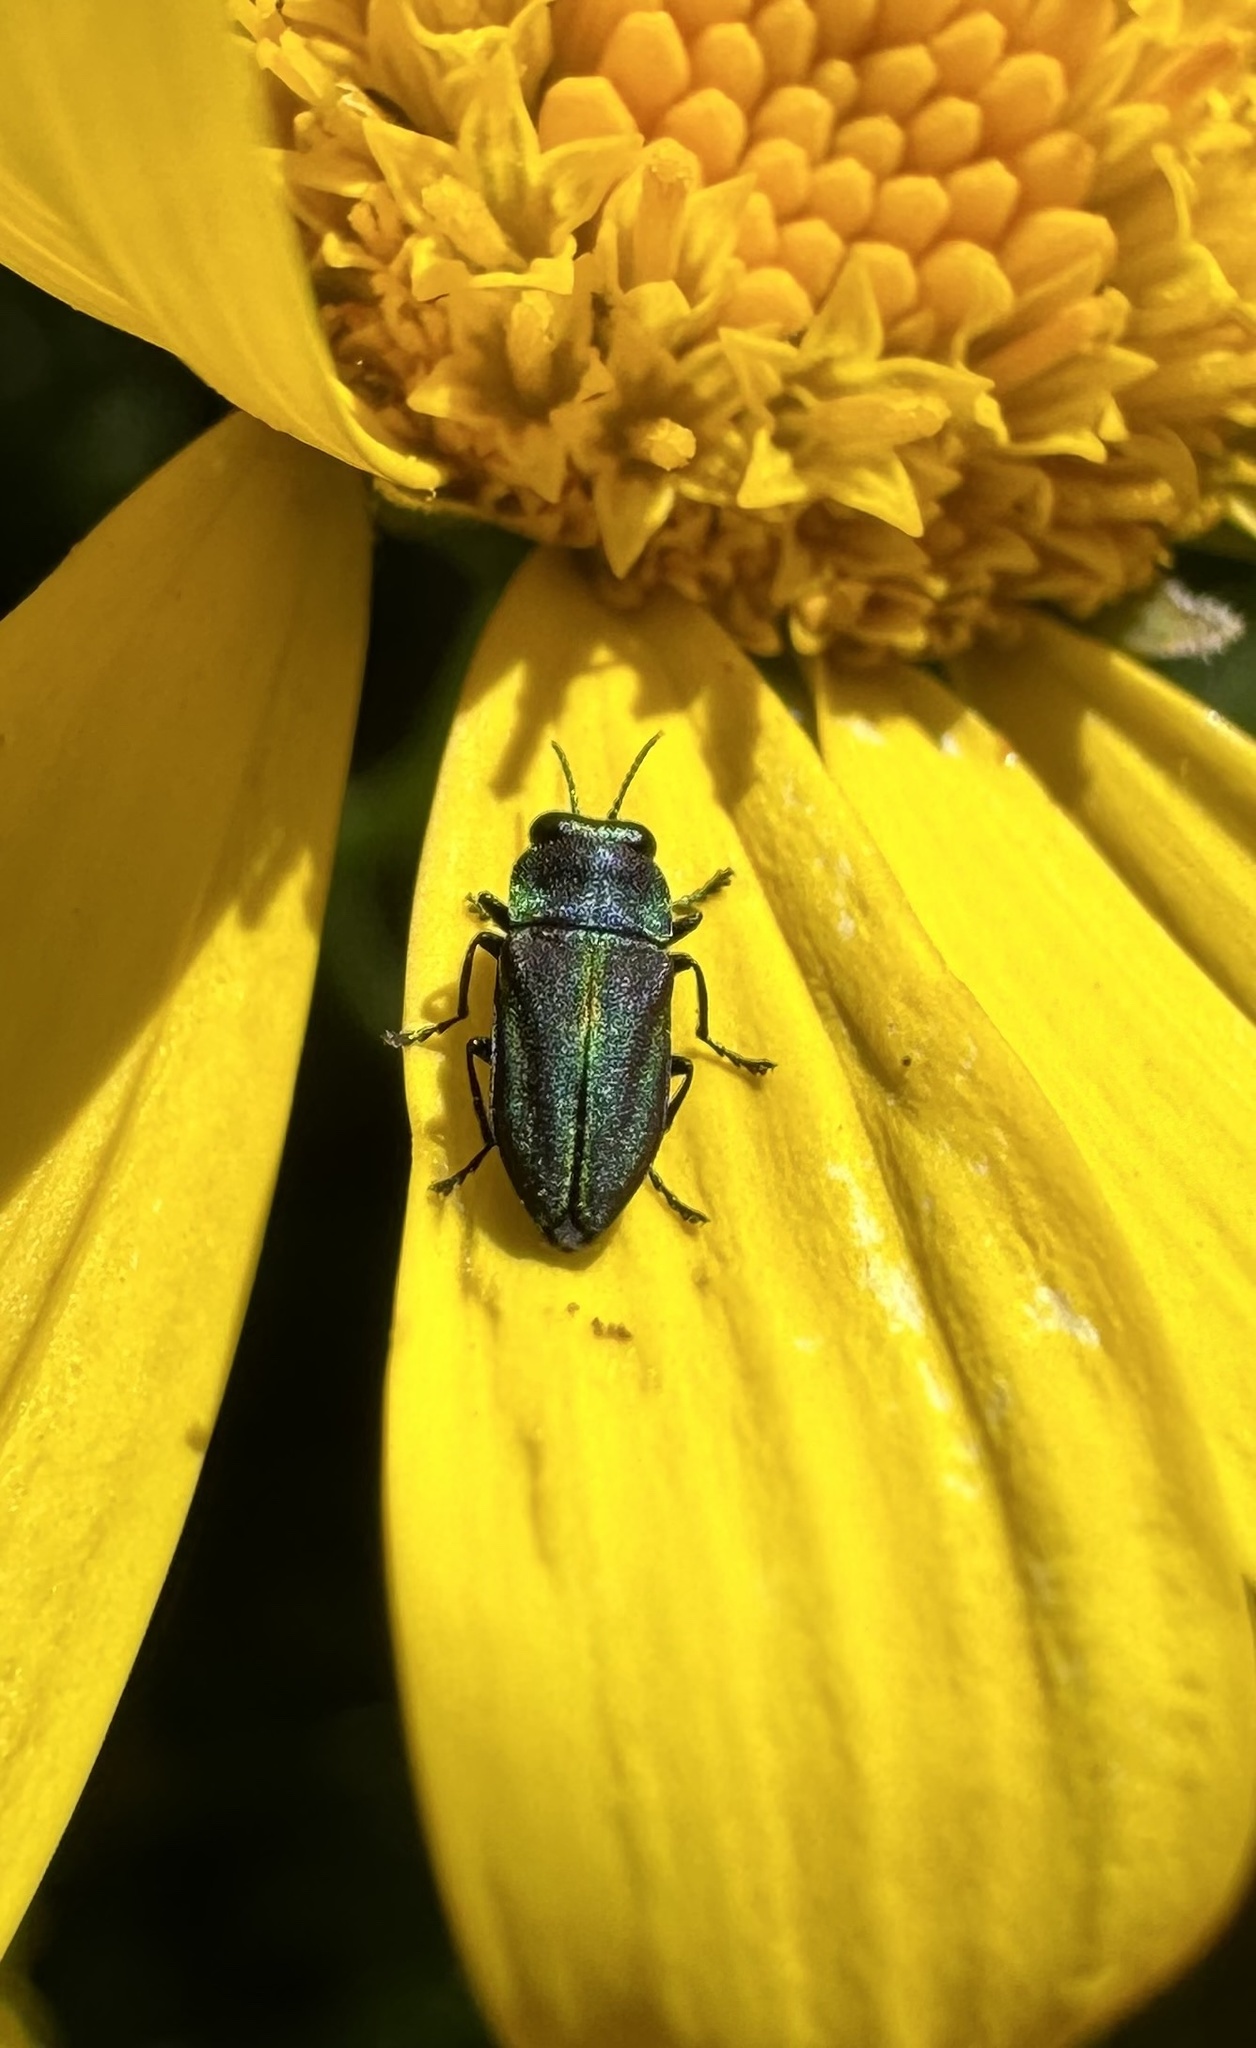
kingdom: Animalia
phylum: Arthropoda
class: Insecta
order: Coleoptera
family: Buprestidae
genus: Bilyaxia
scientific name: Bilyaxia concinna
